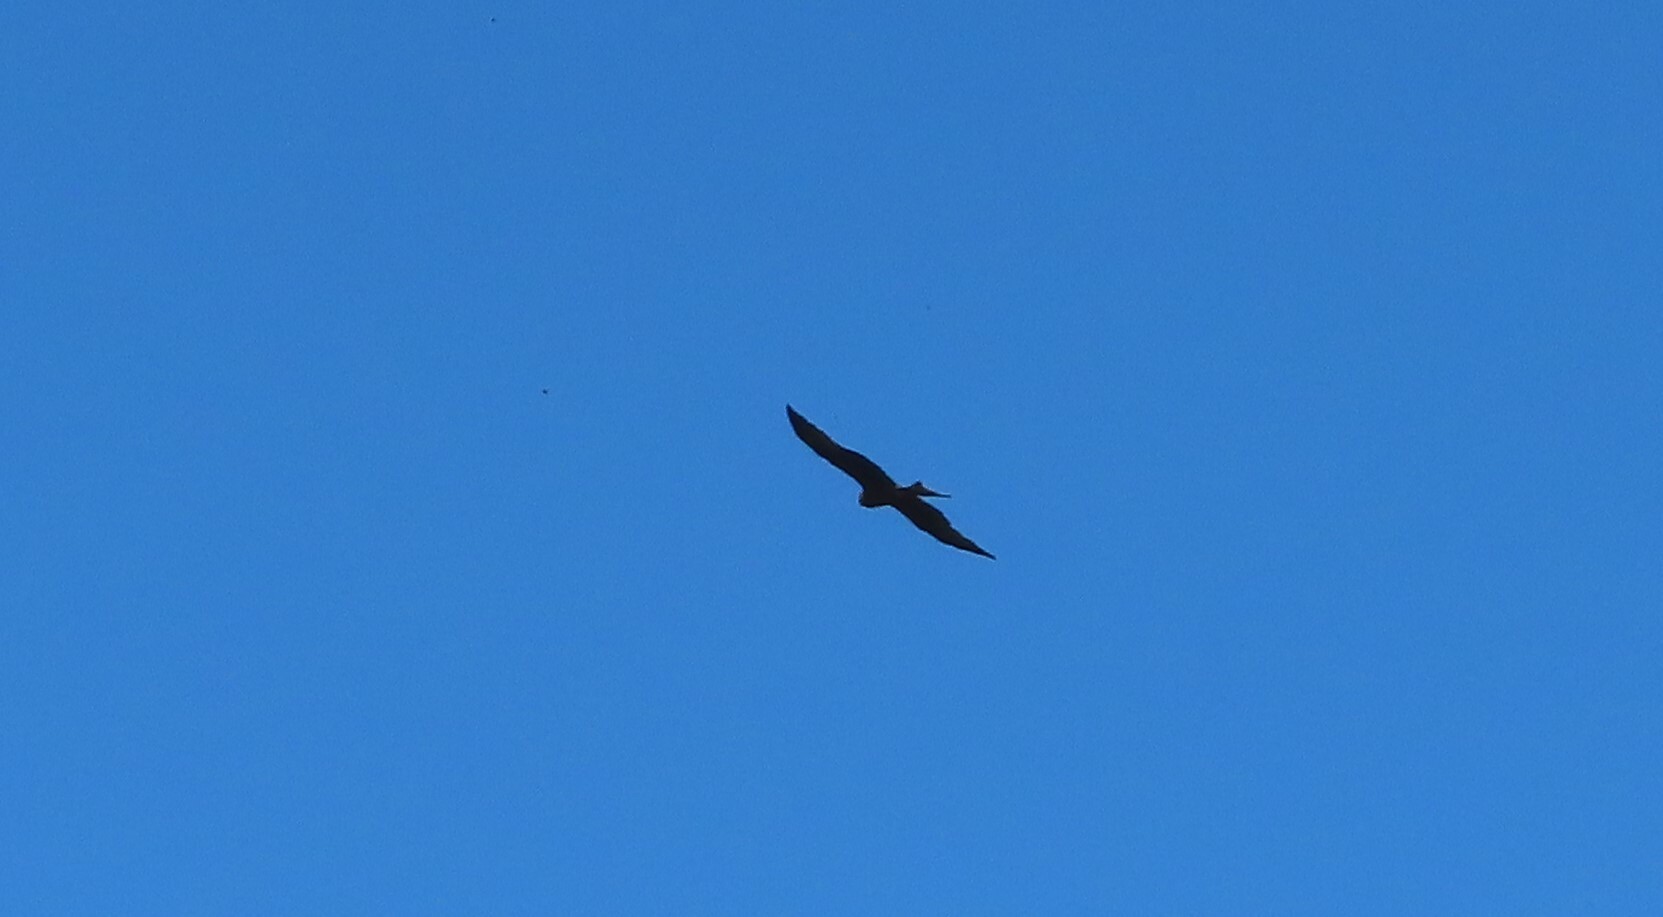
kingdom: Animalia
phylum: Chordata
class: Aves
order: Accipitriformes
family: Accipitridae
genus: Milvus
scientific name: Milvus migrans
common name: Black kite
